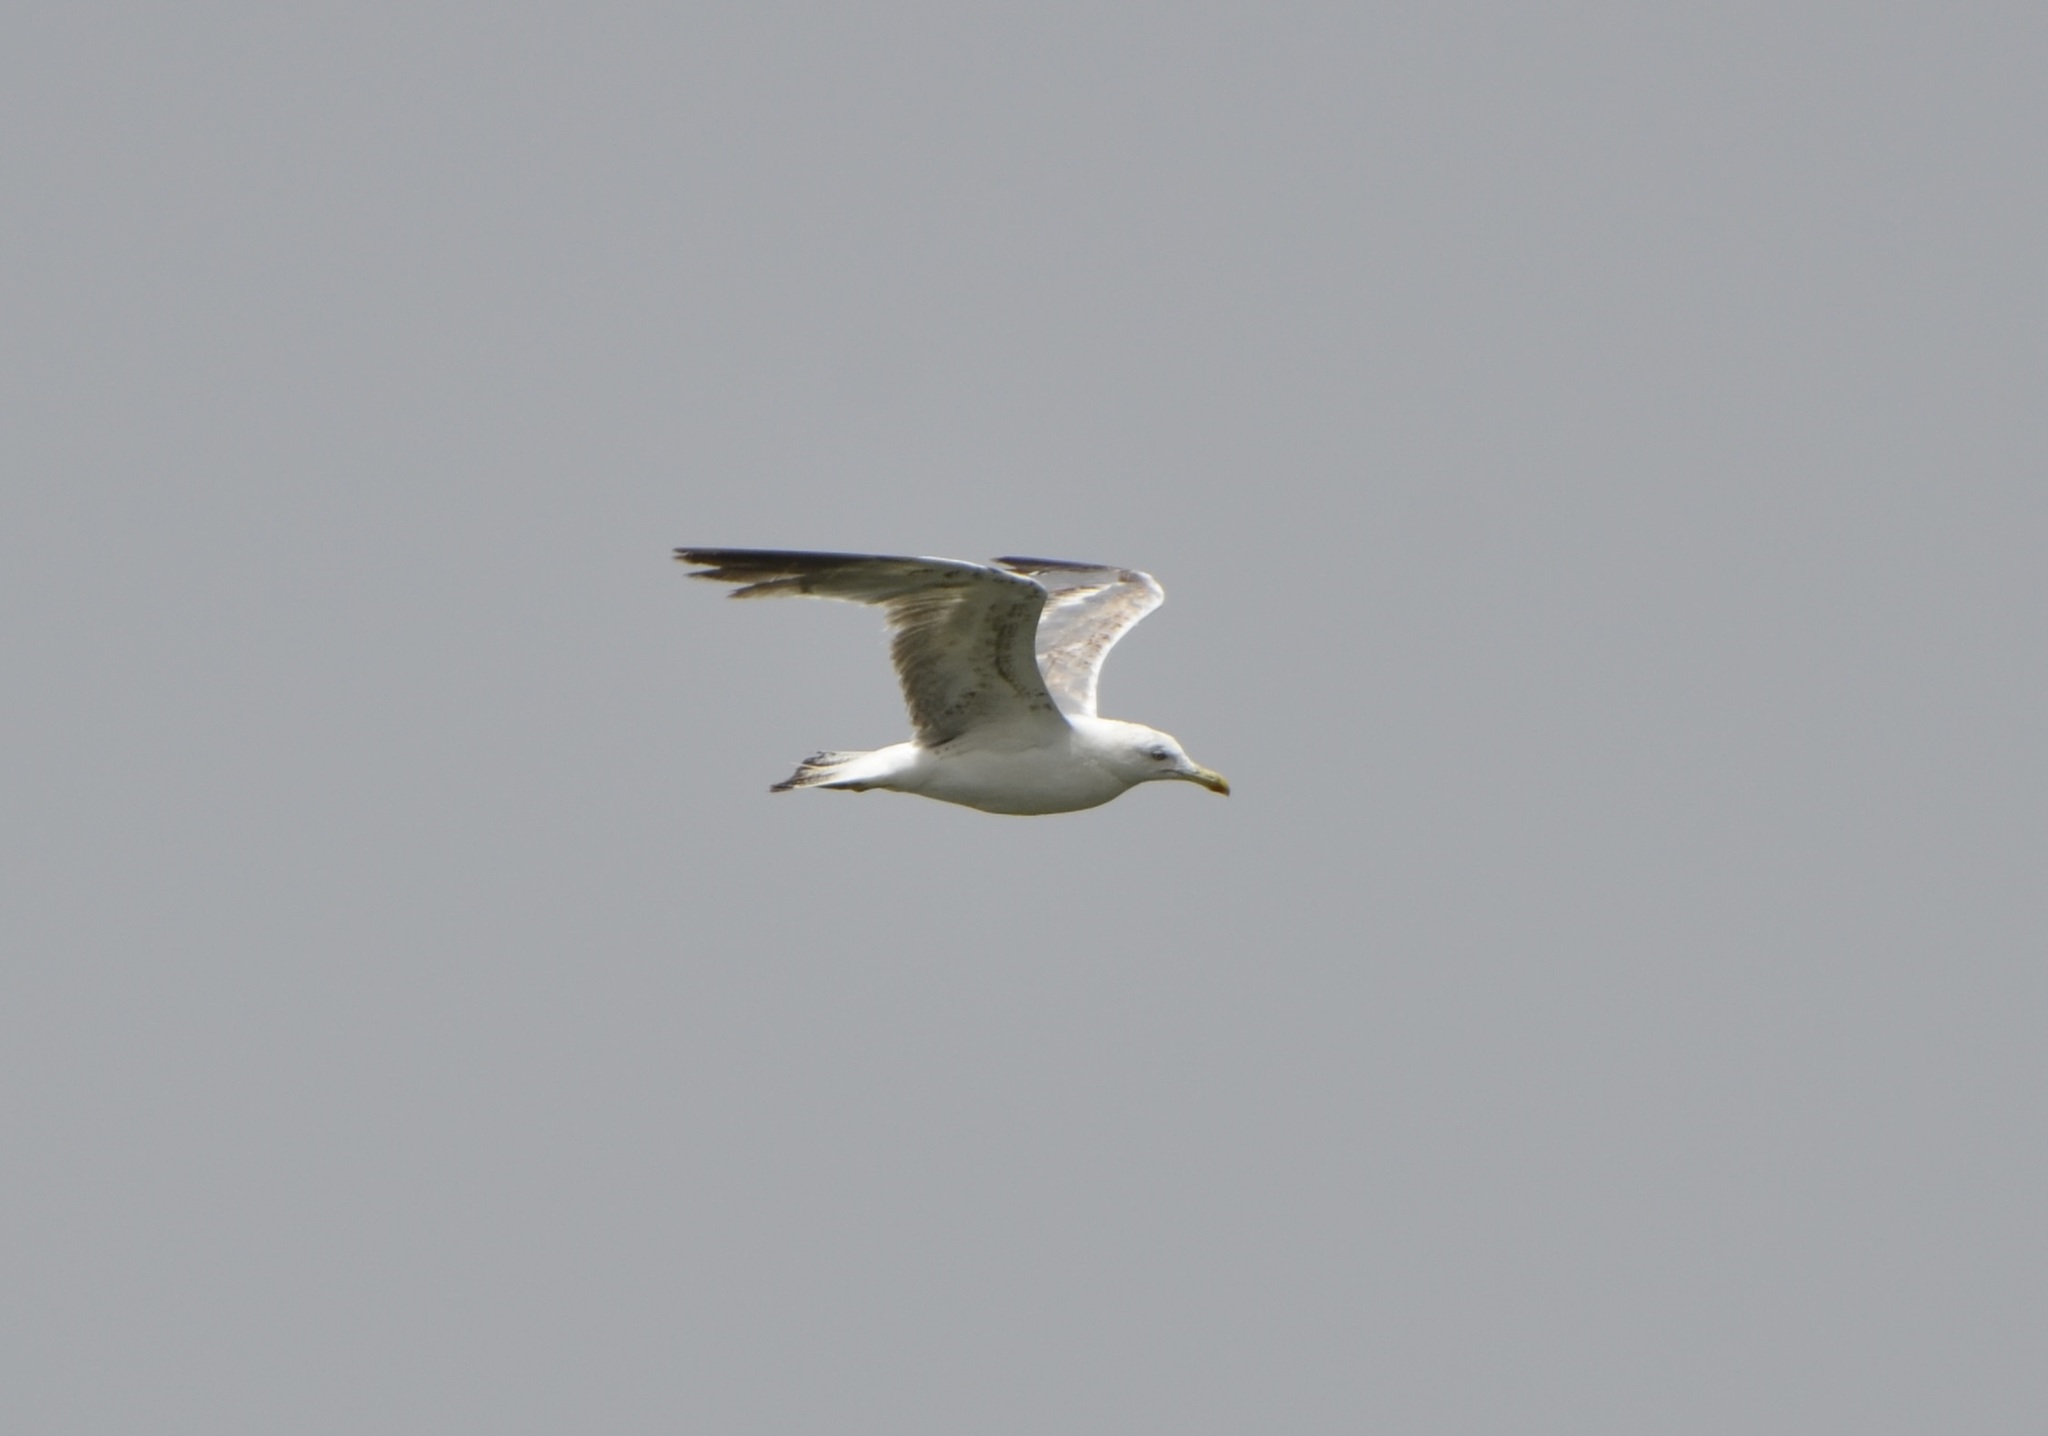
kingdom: Animalia
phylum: Chordata
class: Aves
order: Charadriiformes
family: Laridae
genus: Larus
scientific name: Larus michahellis
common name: Yellow-legged gull
